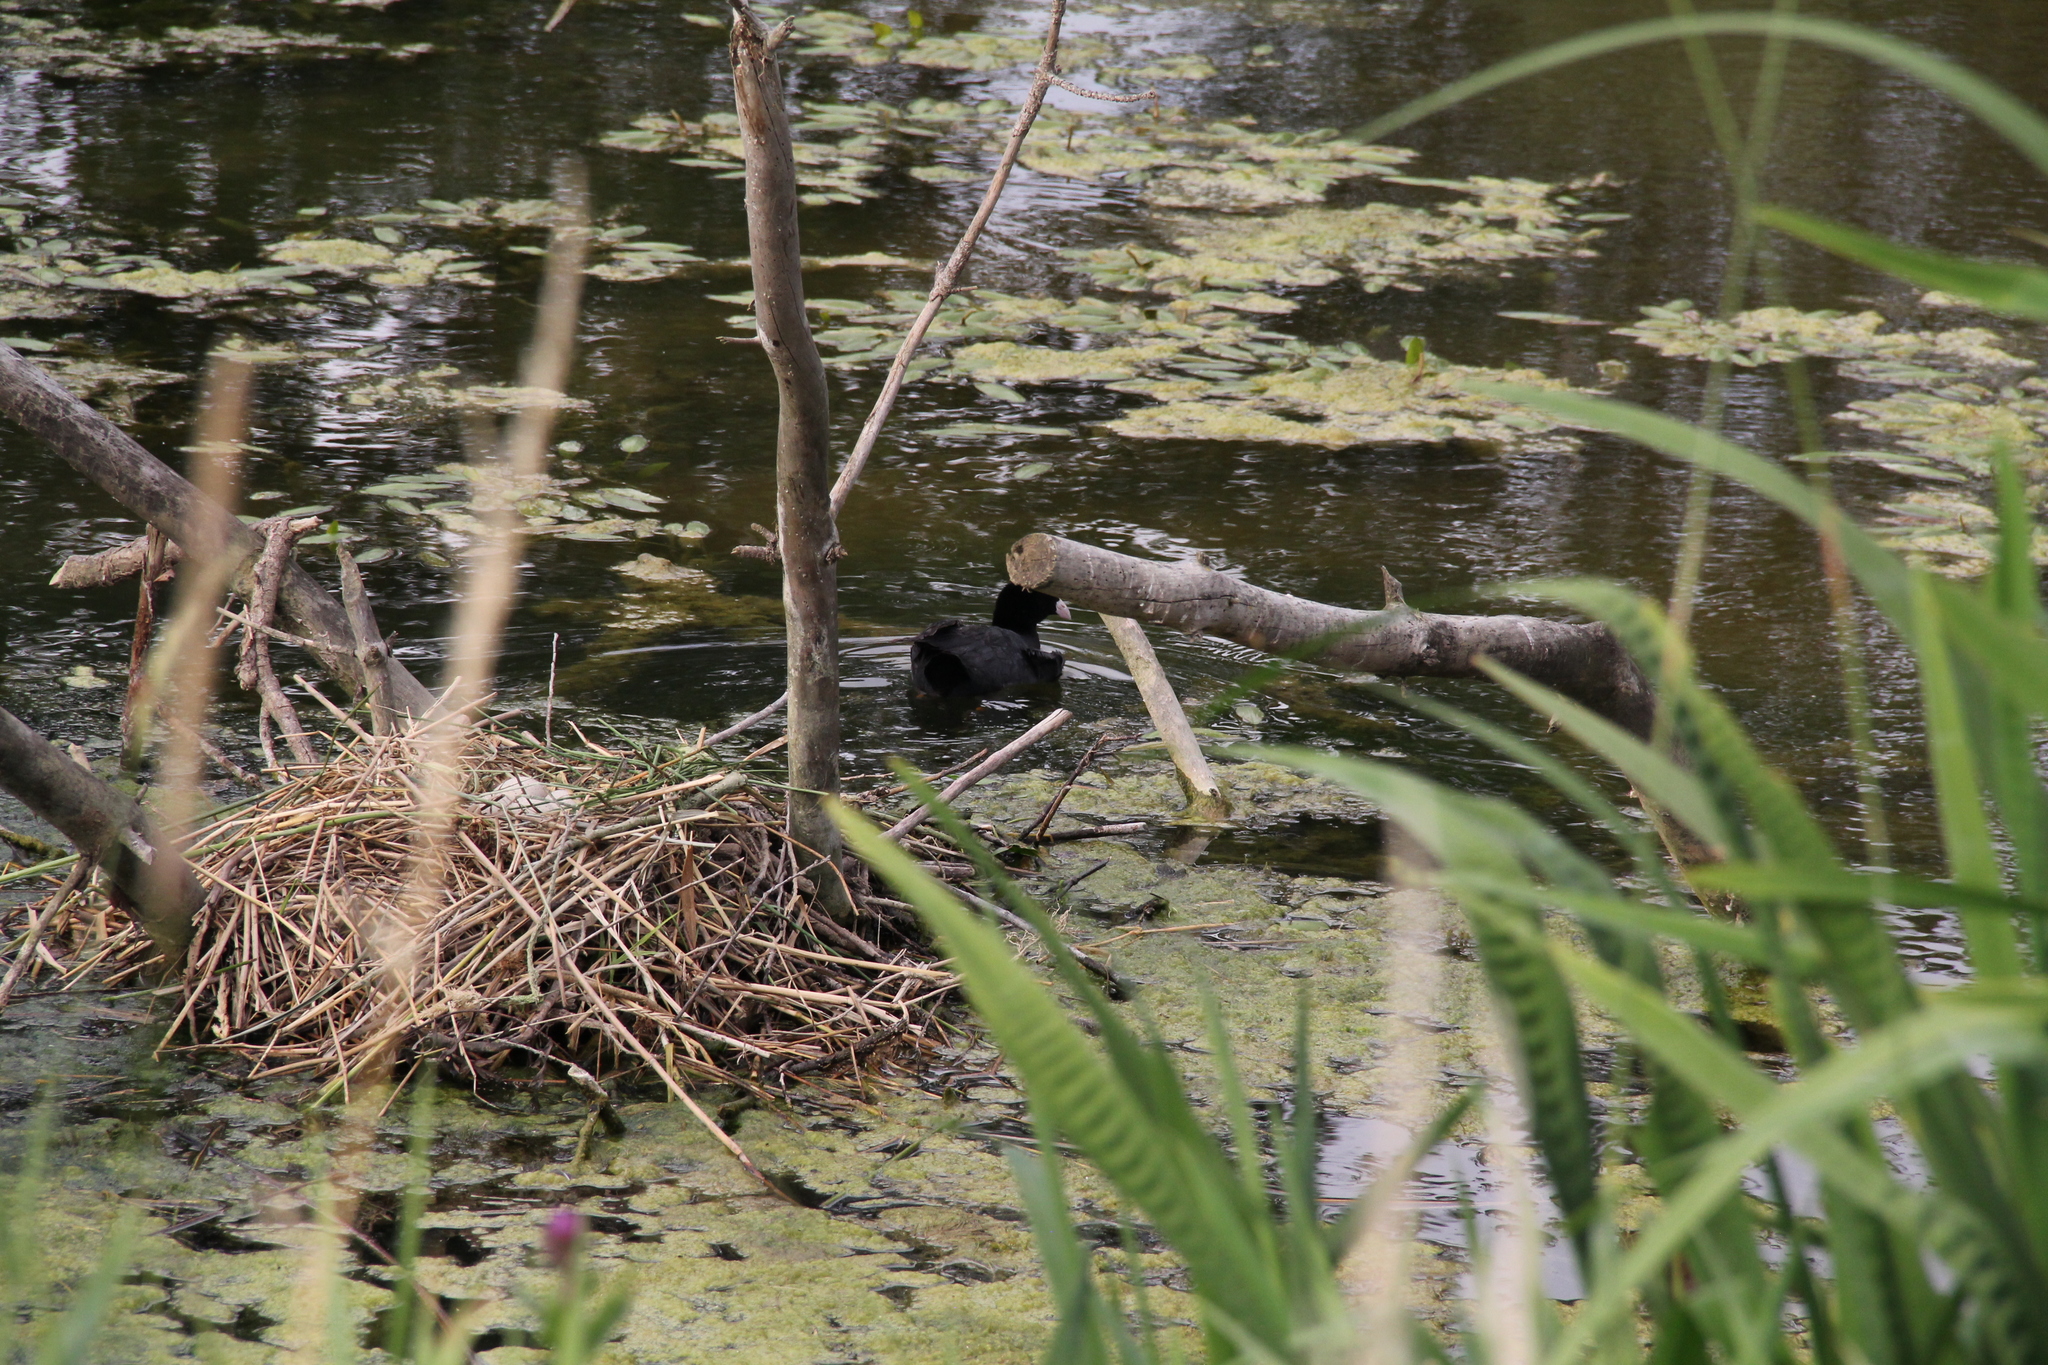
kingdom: Animalia
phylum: Chordata
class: Aves
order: Gruiformes
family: Rallidae
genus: Fulica
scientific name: Fulica atra
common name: Eurasian coot
